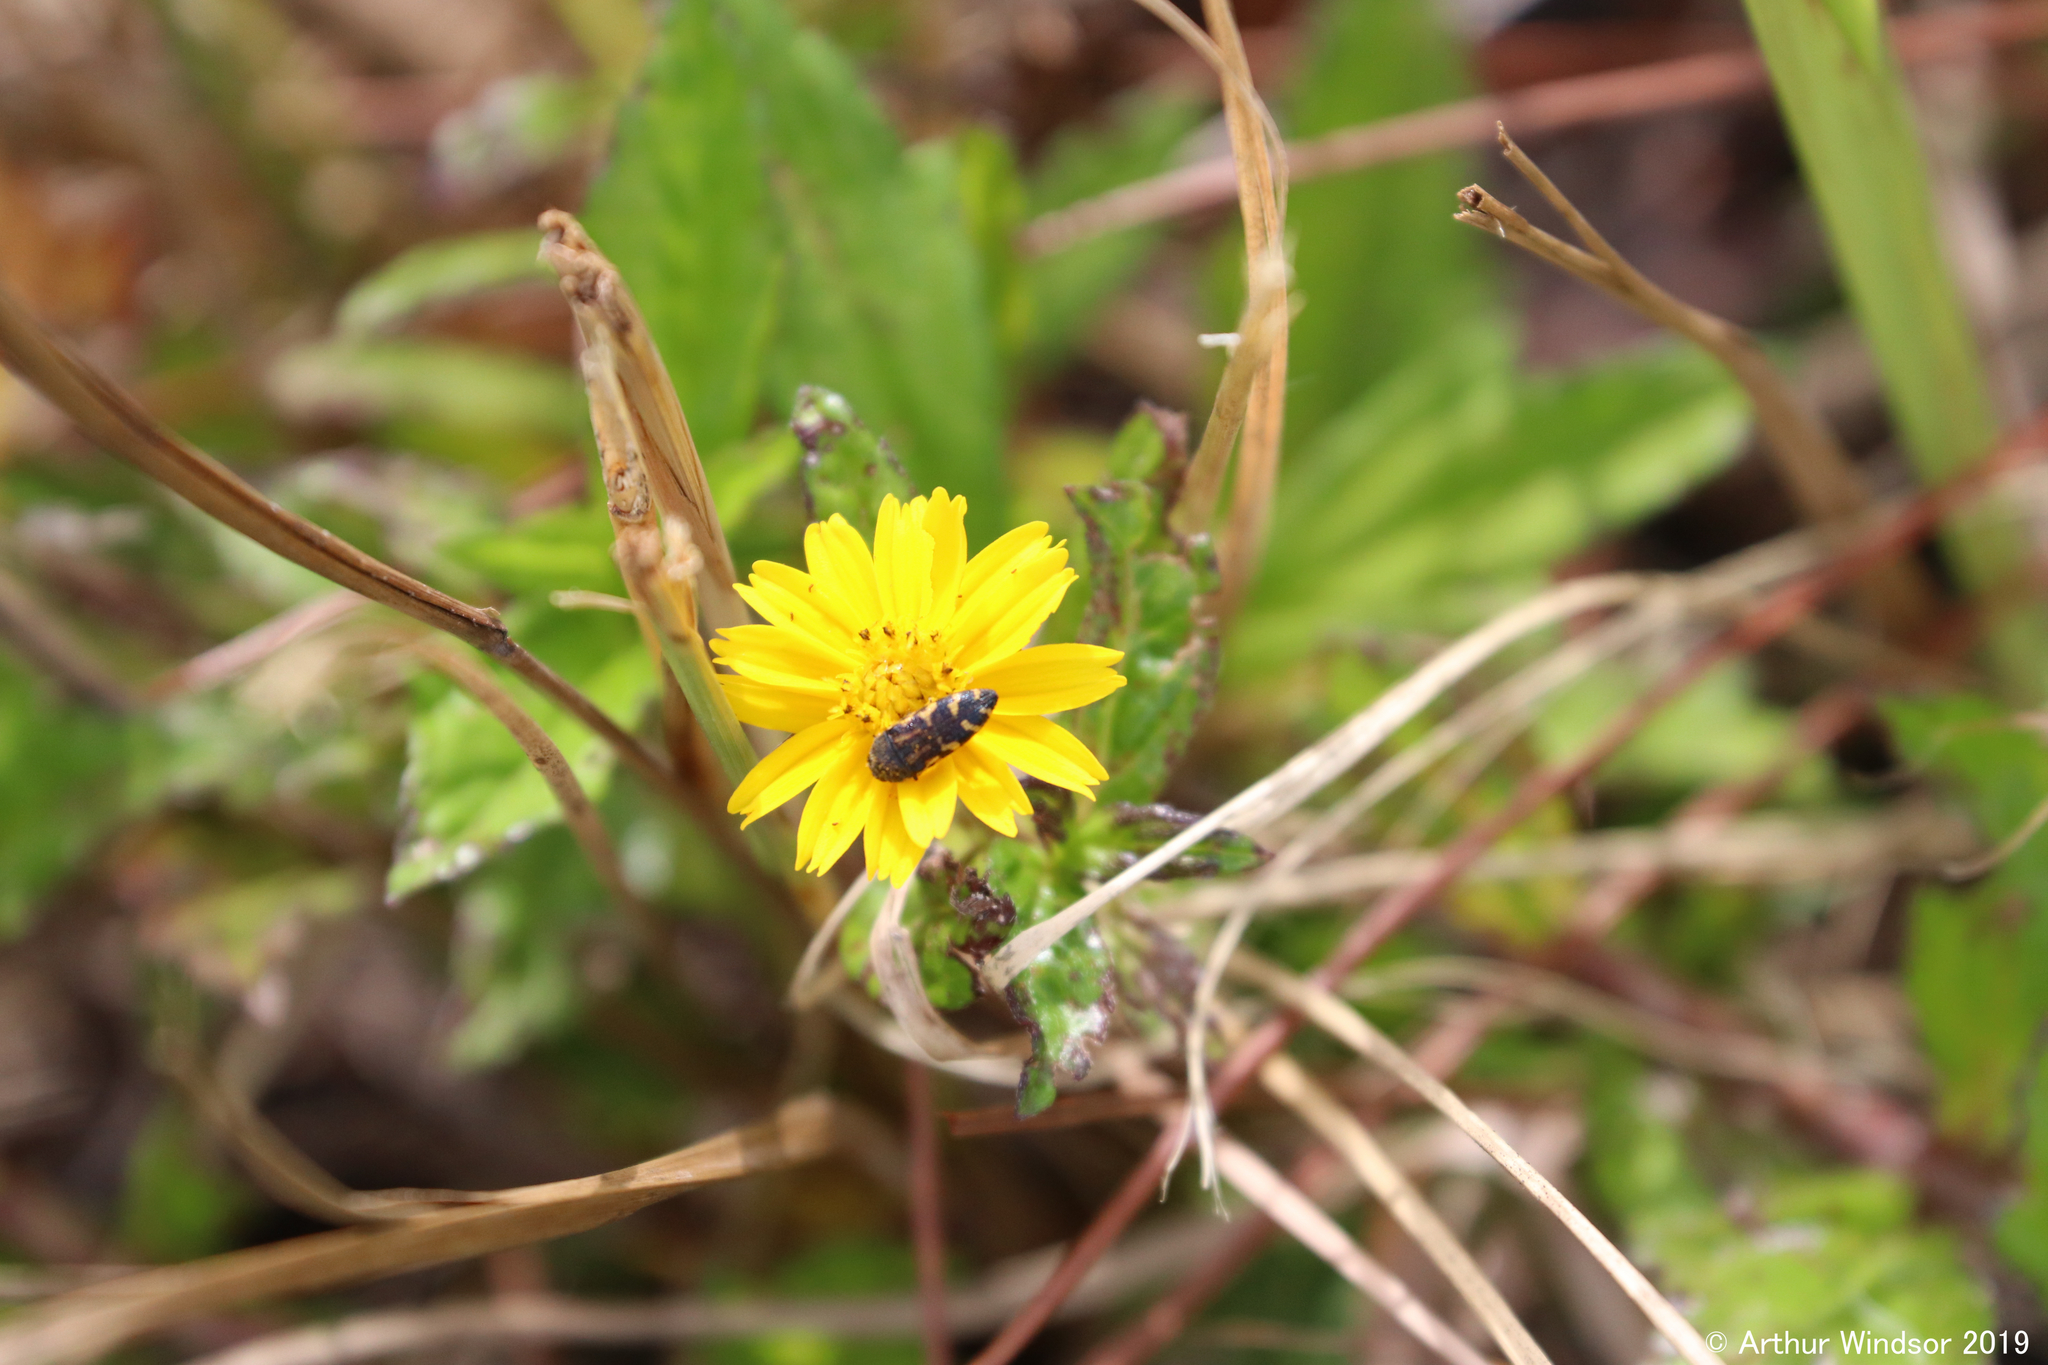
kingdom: Animalia
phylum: Arthropoda
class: Insecta
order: Coleoptera
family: Buprestidae
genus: Acmaeodera
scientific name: Acmaeodera pulchella
